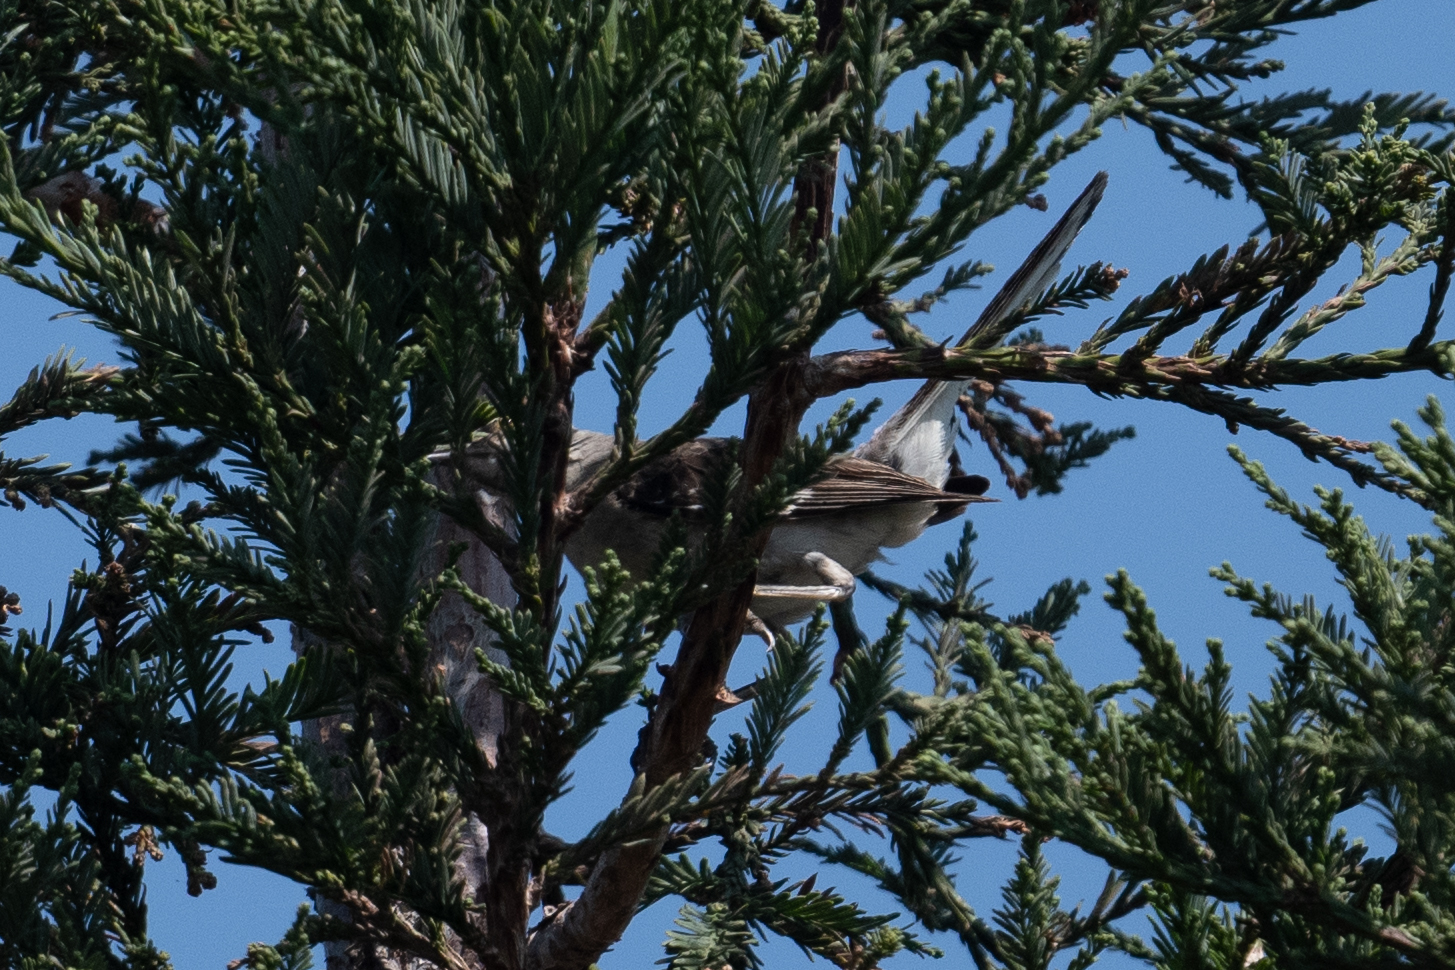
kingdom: Animalia
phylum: Chordata
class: Aves
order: Passeriformes
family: Mimidae
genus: Mimus
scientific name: Mimus polyglottos
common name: Northern mockingbird
